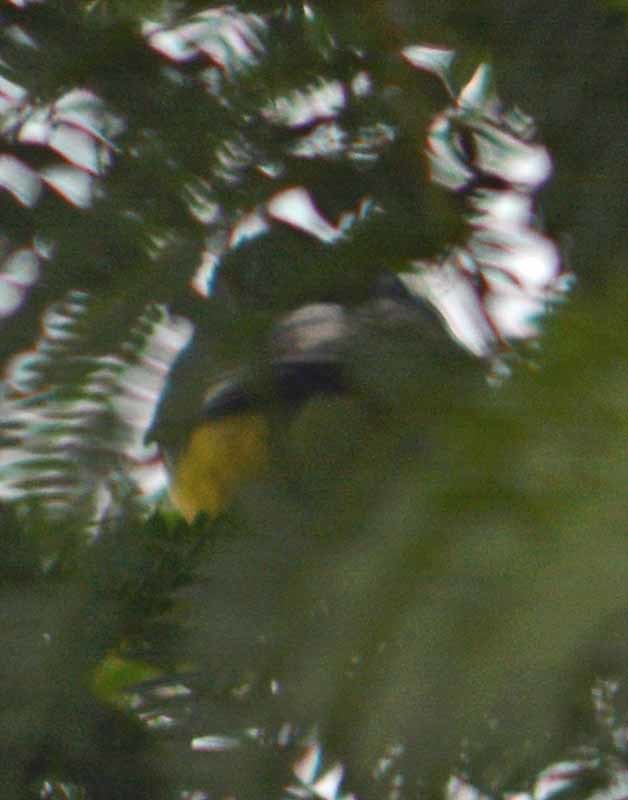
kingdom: Animalia
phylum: Chordata
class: Aves
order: Passeriformes
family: Fringillidae
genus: Spinus
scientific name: Spinus psaltria
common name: Lesser goldfinch
